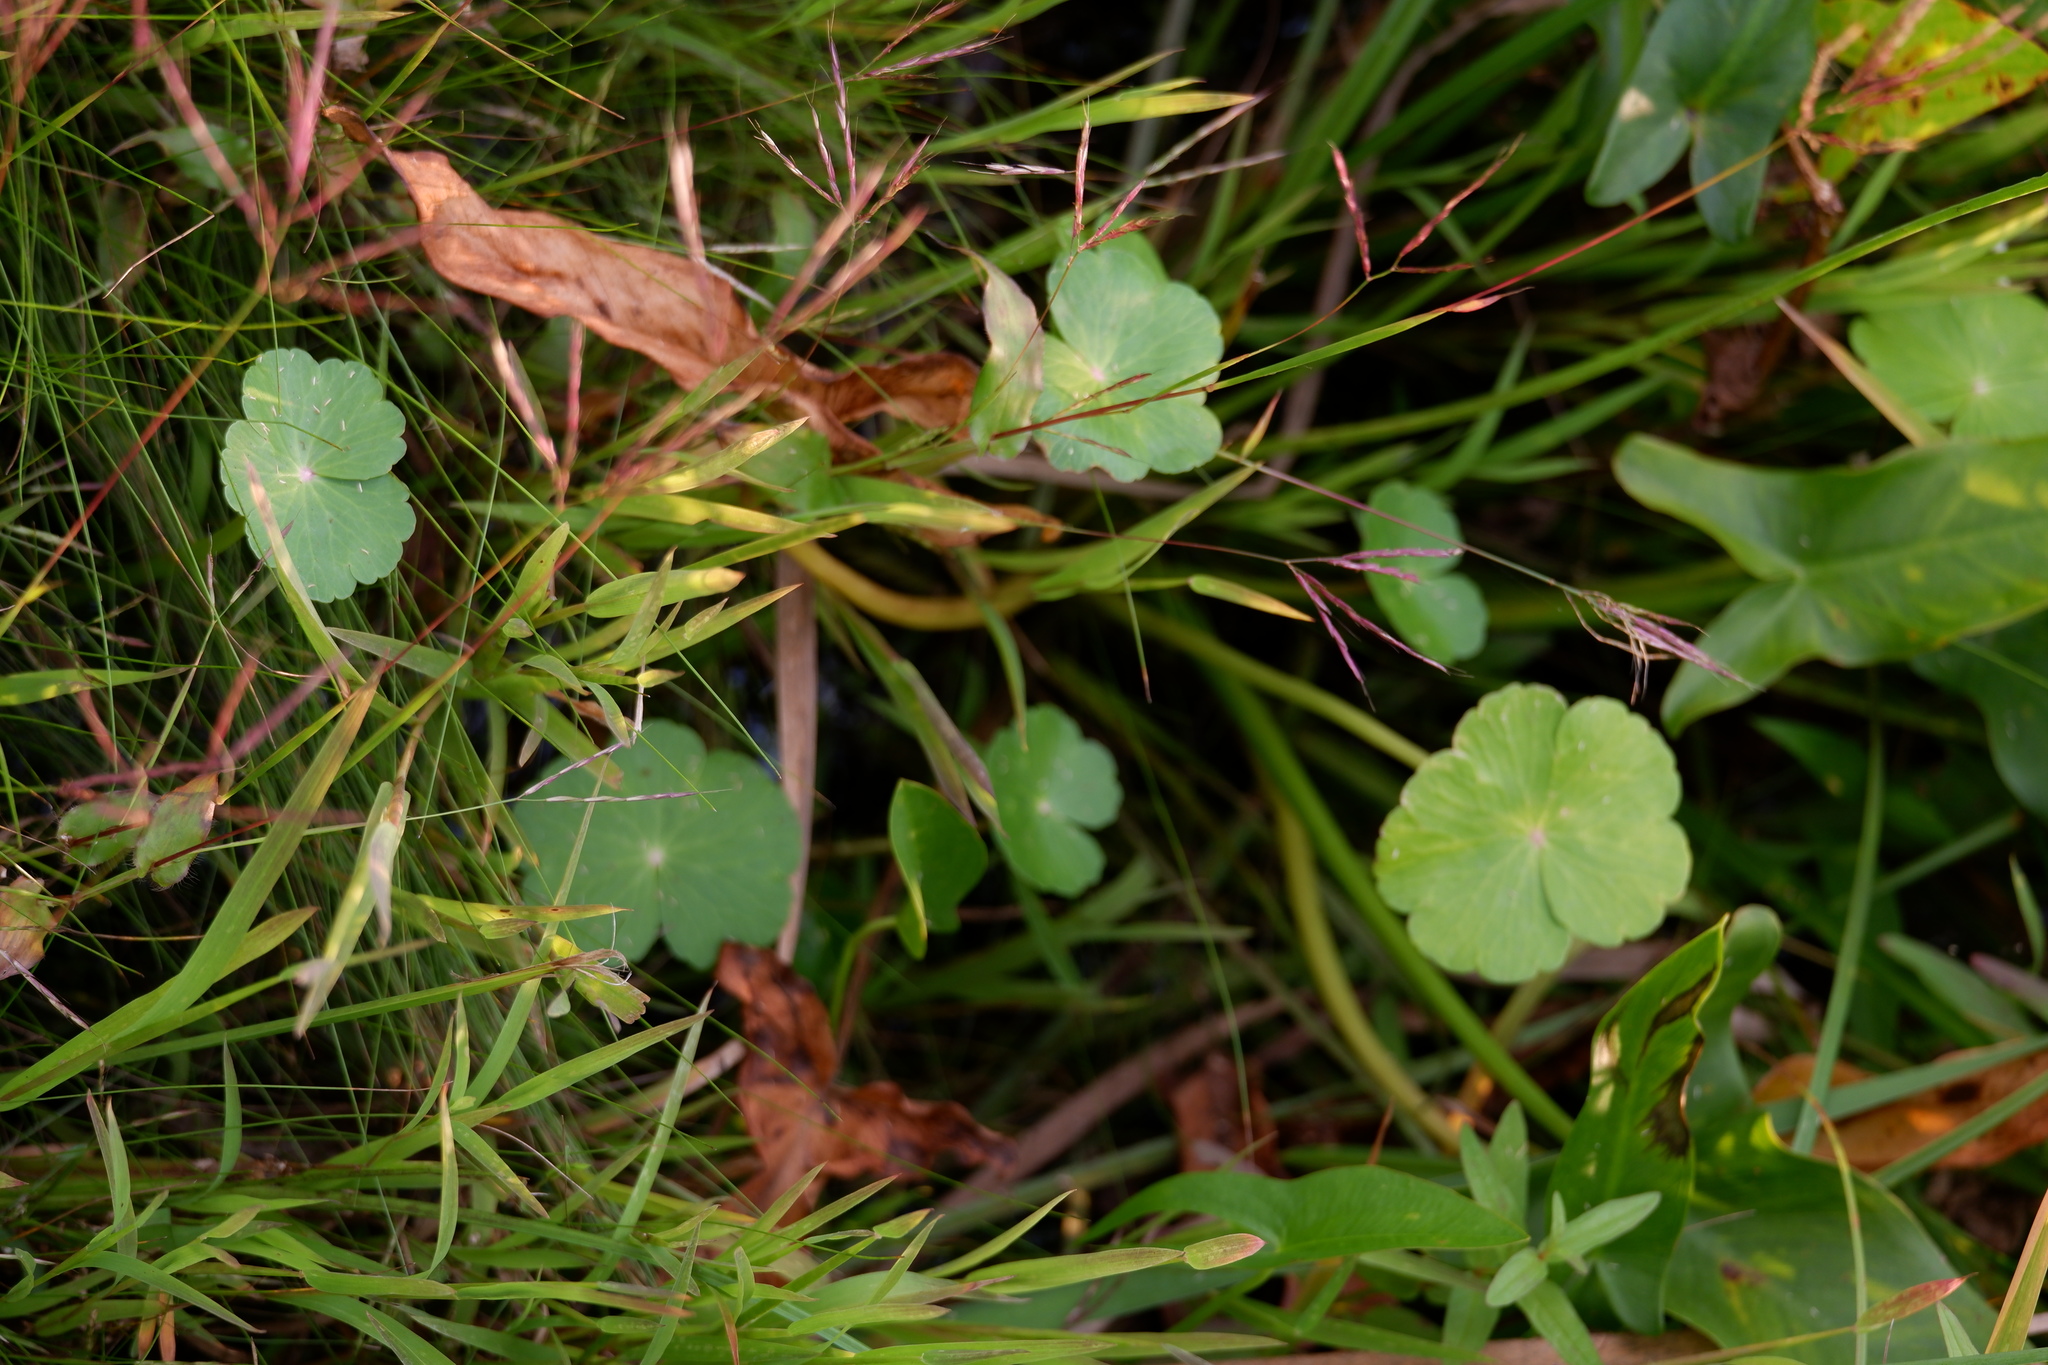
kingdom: Plantae
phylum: Tracheophyta
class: Magnoliopsida
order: Apiales
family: Araliaceae
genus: Hydrocotyle
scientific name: Hydrocotyle ranunculoides
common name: Floating pennywort
